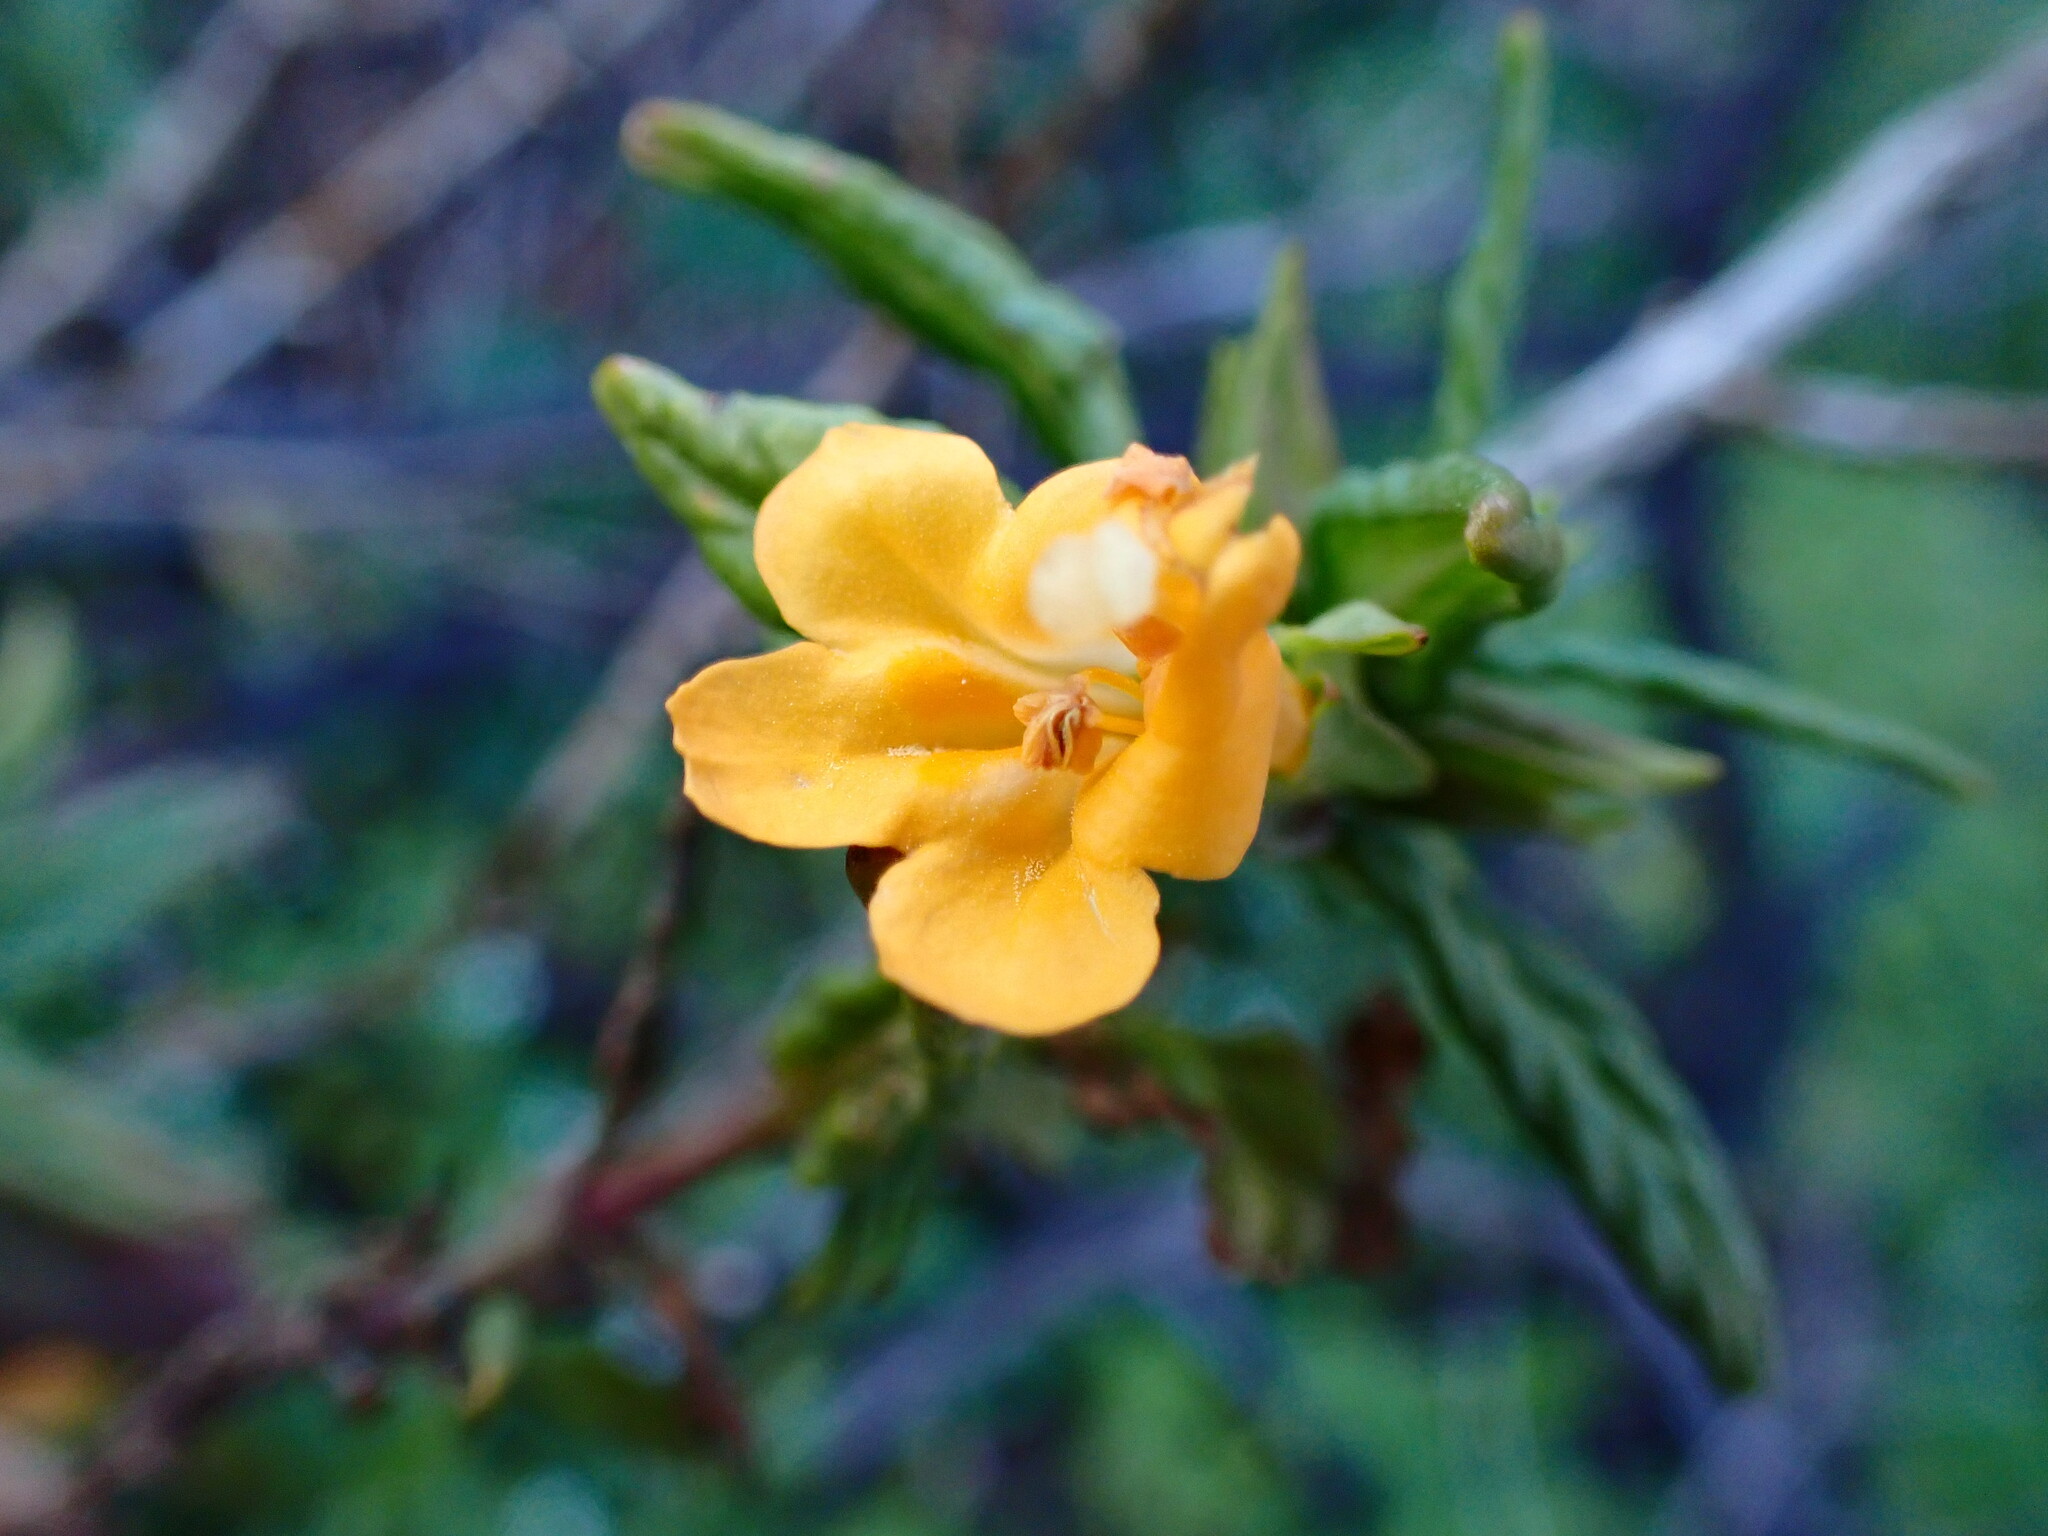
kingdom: Plantae
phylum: Tracheophyta
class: Magnoliopsida
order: Lamiales
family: Phrymaceae
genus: Diplacus
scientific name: Diplacus aurantiacus
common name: Bush monkey-flower
